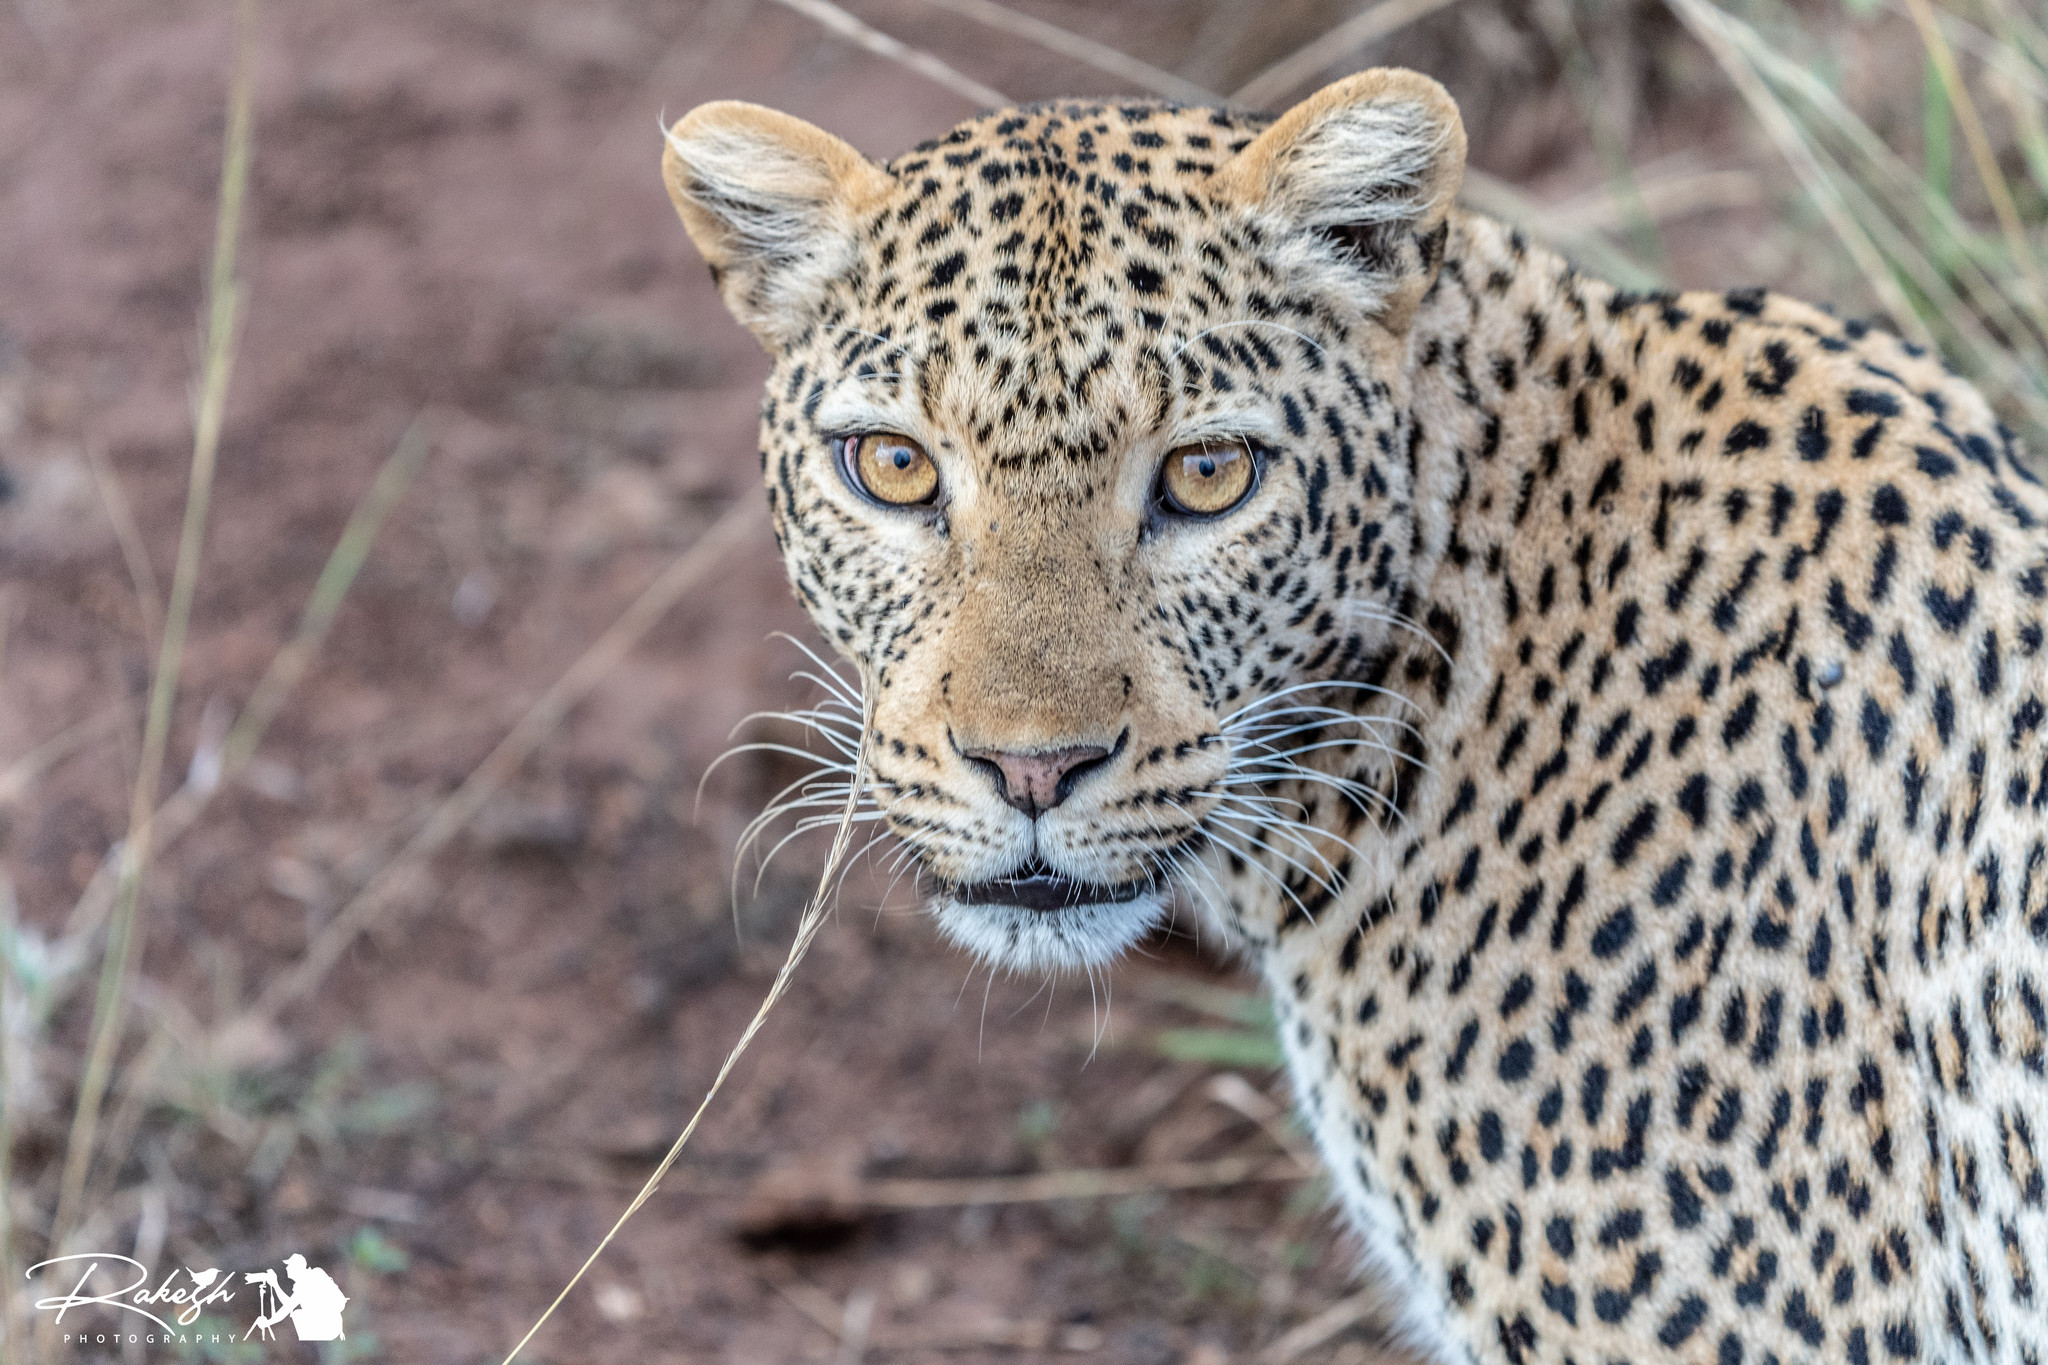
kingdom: Animalia
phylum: Chordata
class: Mammalia
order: Carnivora
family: Felidae
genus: Panthera
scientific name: Panthera pardus
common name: Leopard
